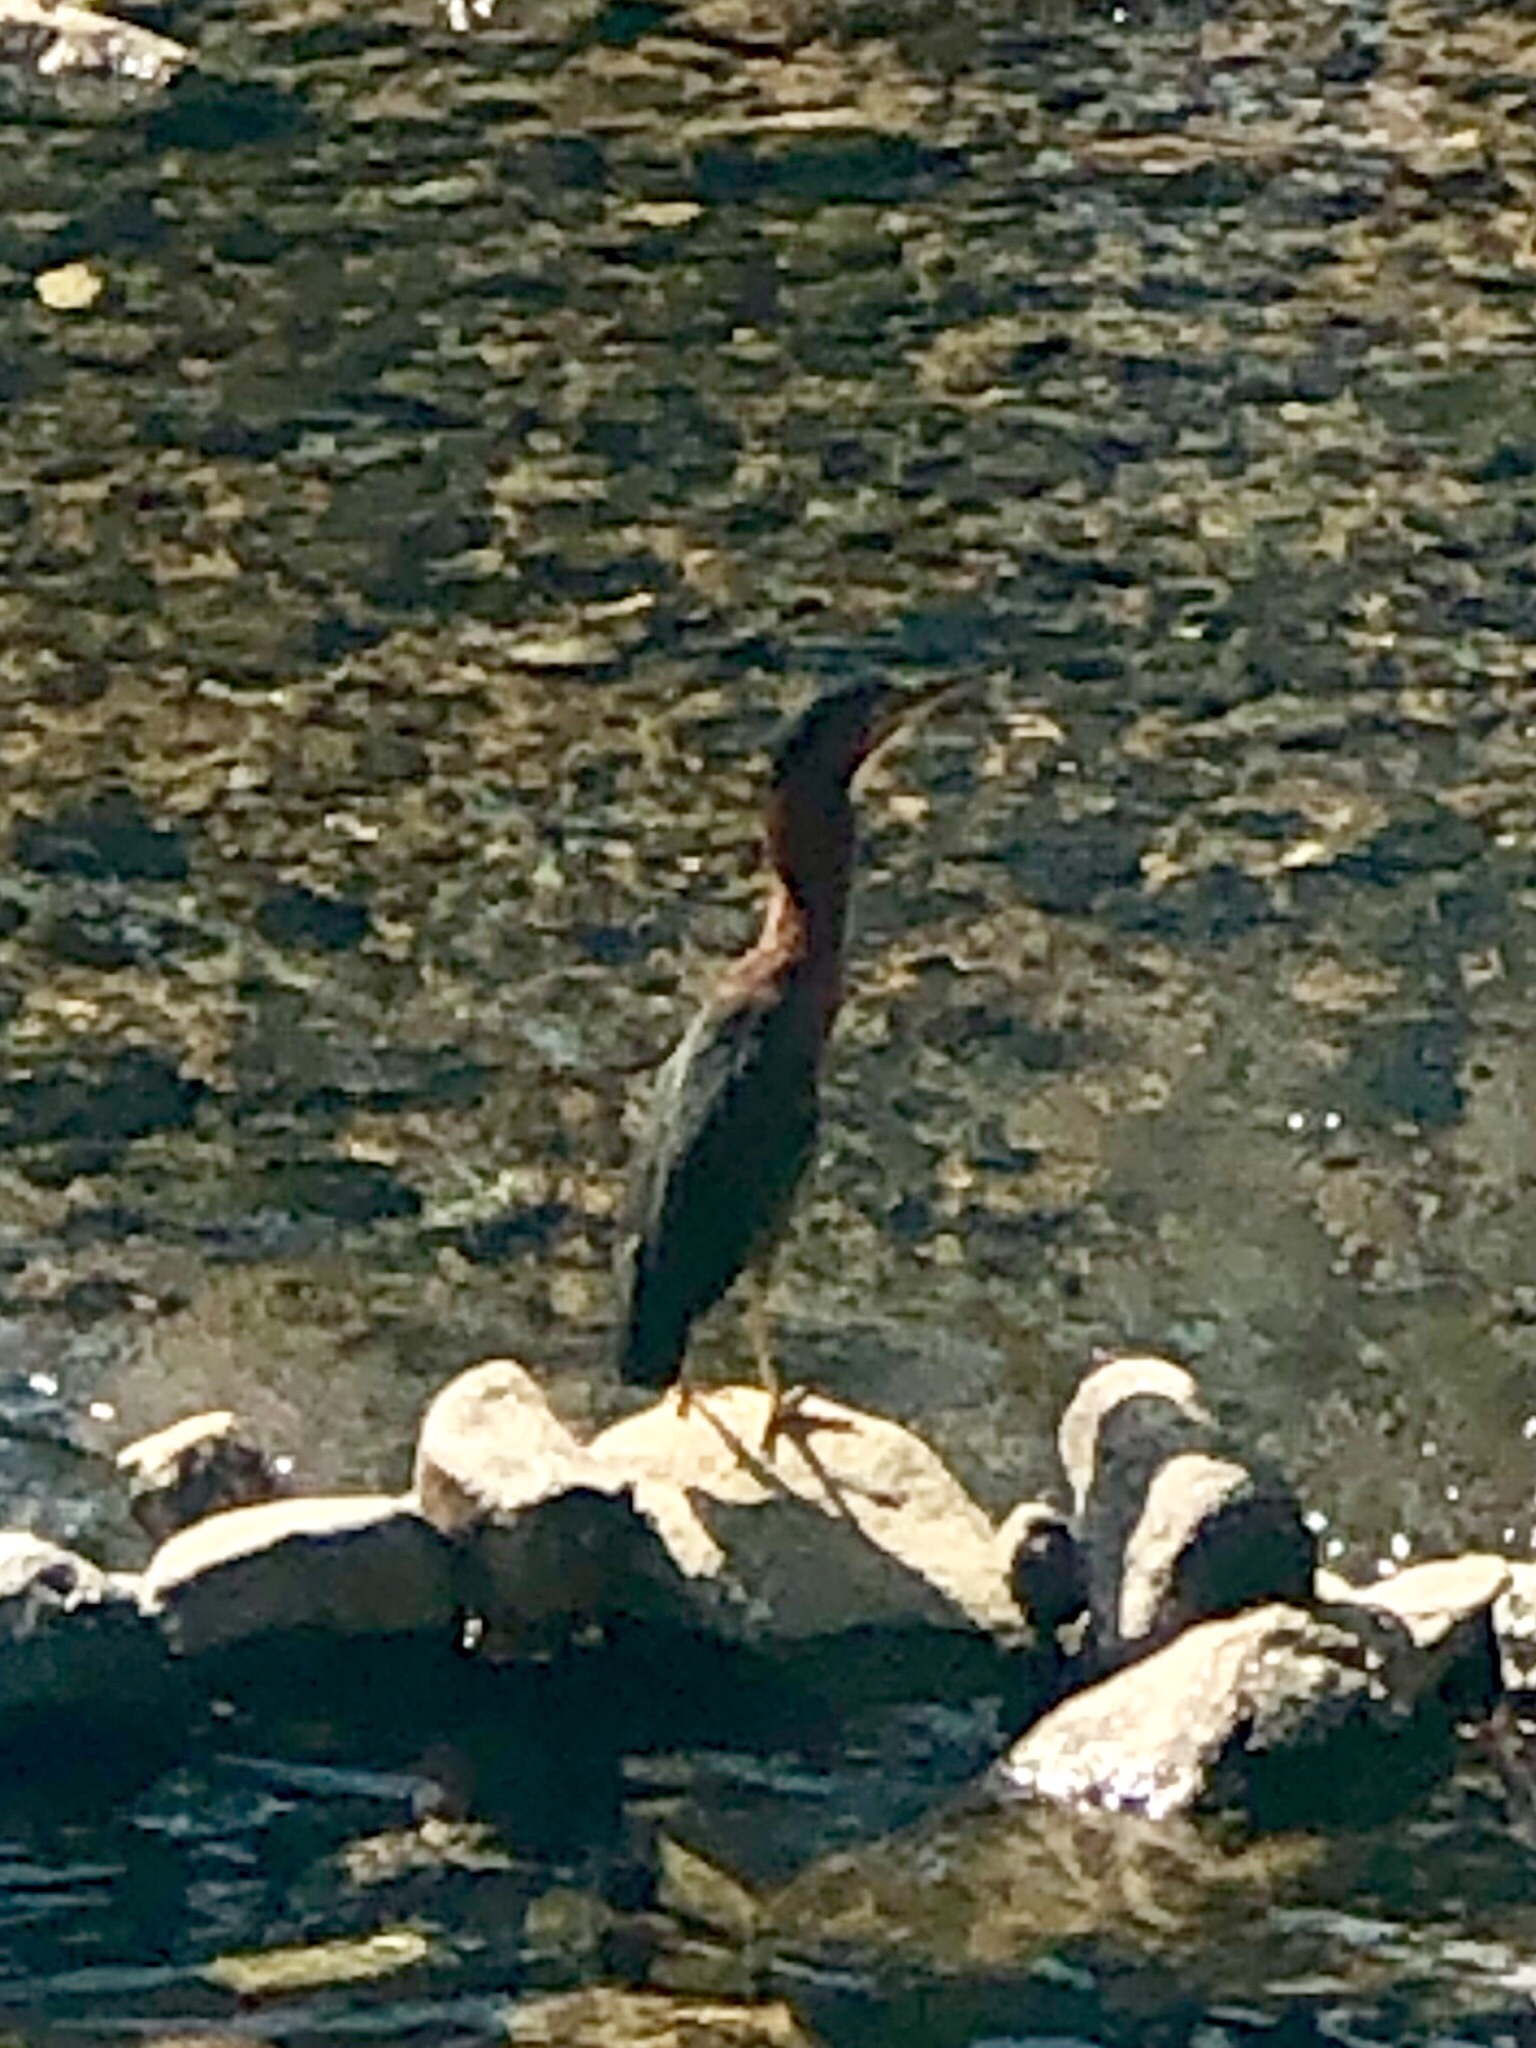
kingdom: Animalia
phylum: Chordata
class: Aves
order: Pelecaniformes
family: Ardeidae
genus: Butorides
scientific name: Butorides virescens
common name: Green heron
